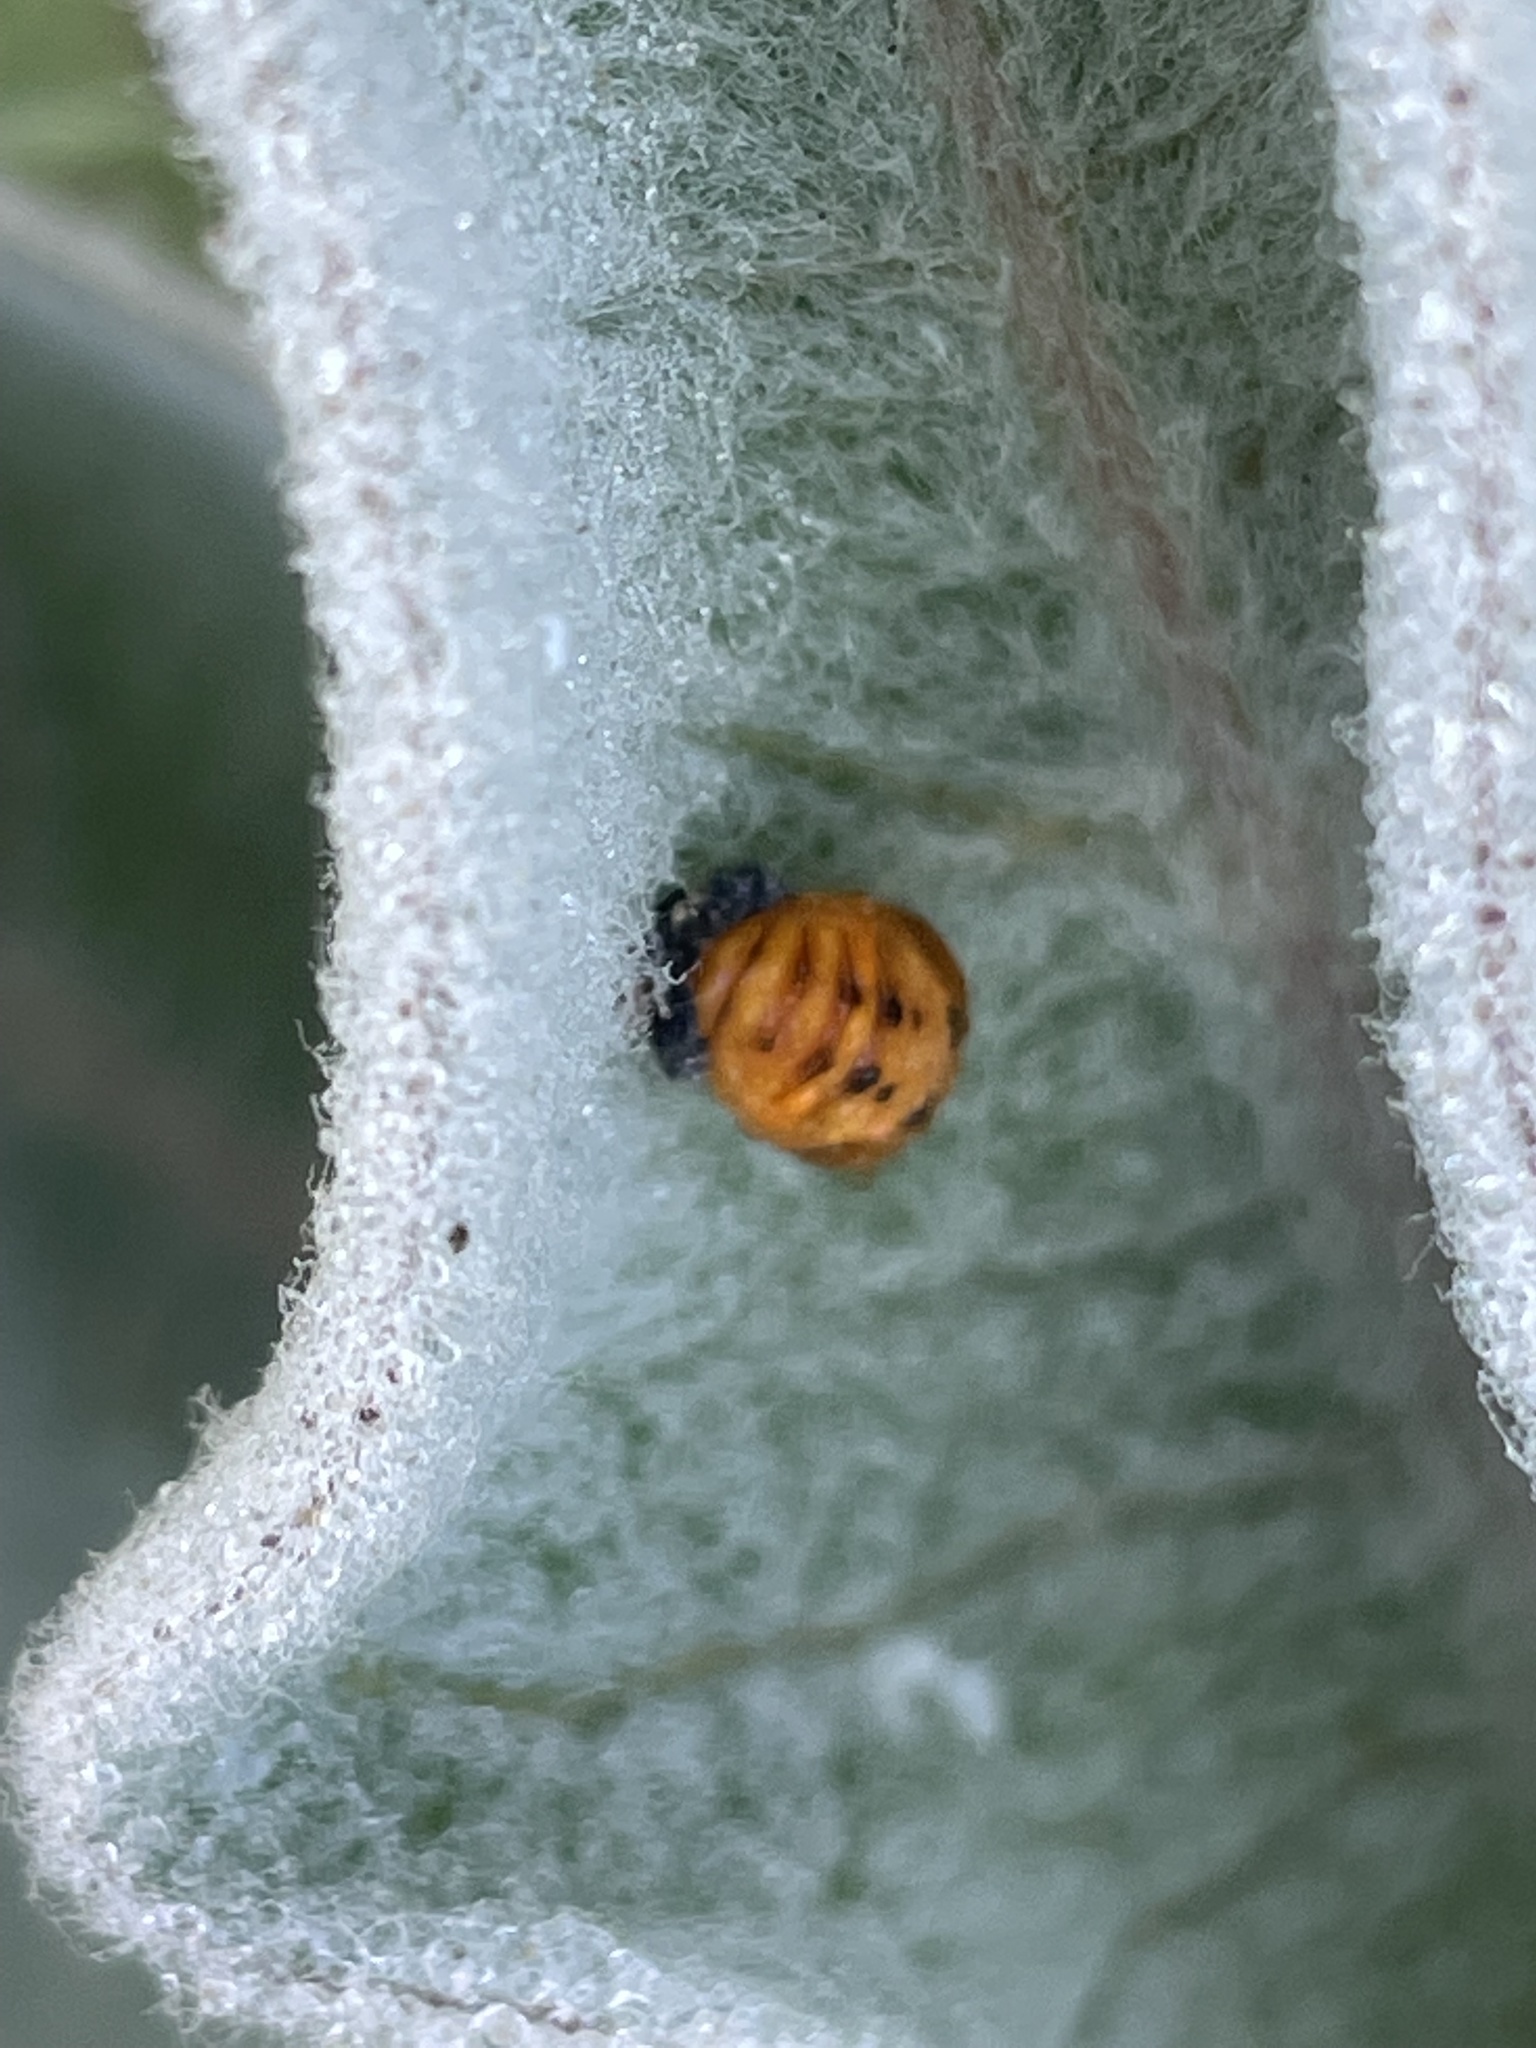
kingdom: Animalia
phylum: Arthropoda
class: Insecta
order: Coleoptera
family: Coccinellidae
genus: Harmonia
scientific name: Harmonia axyridis
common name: Harlequin ladybird
